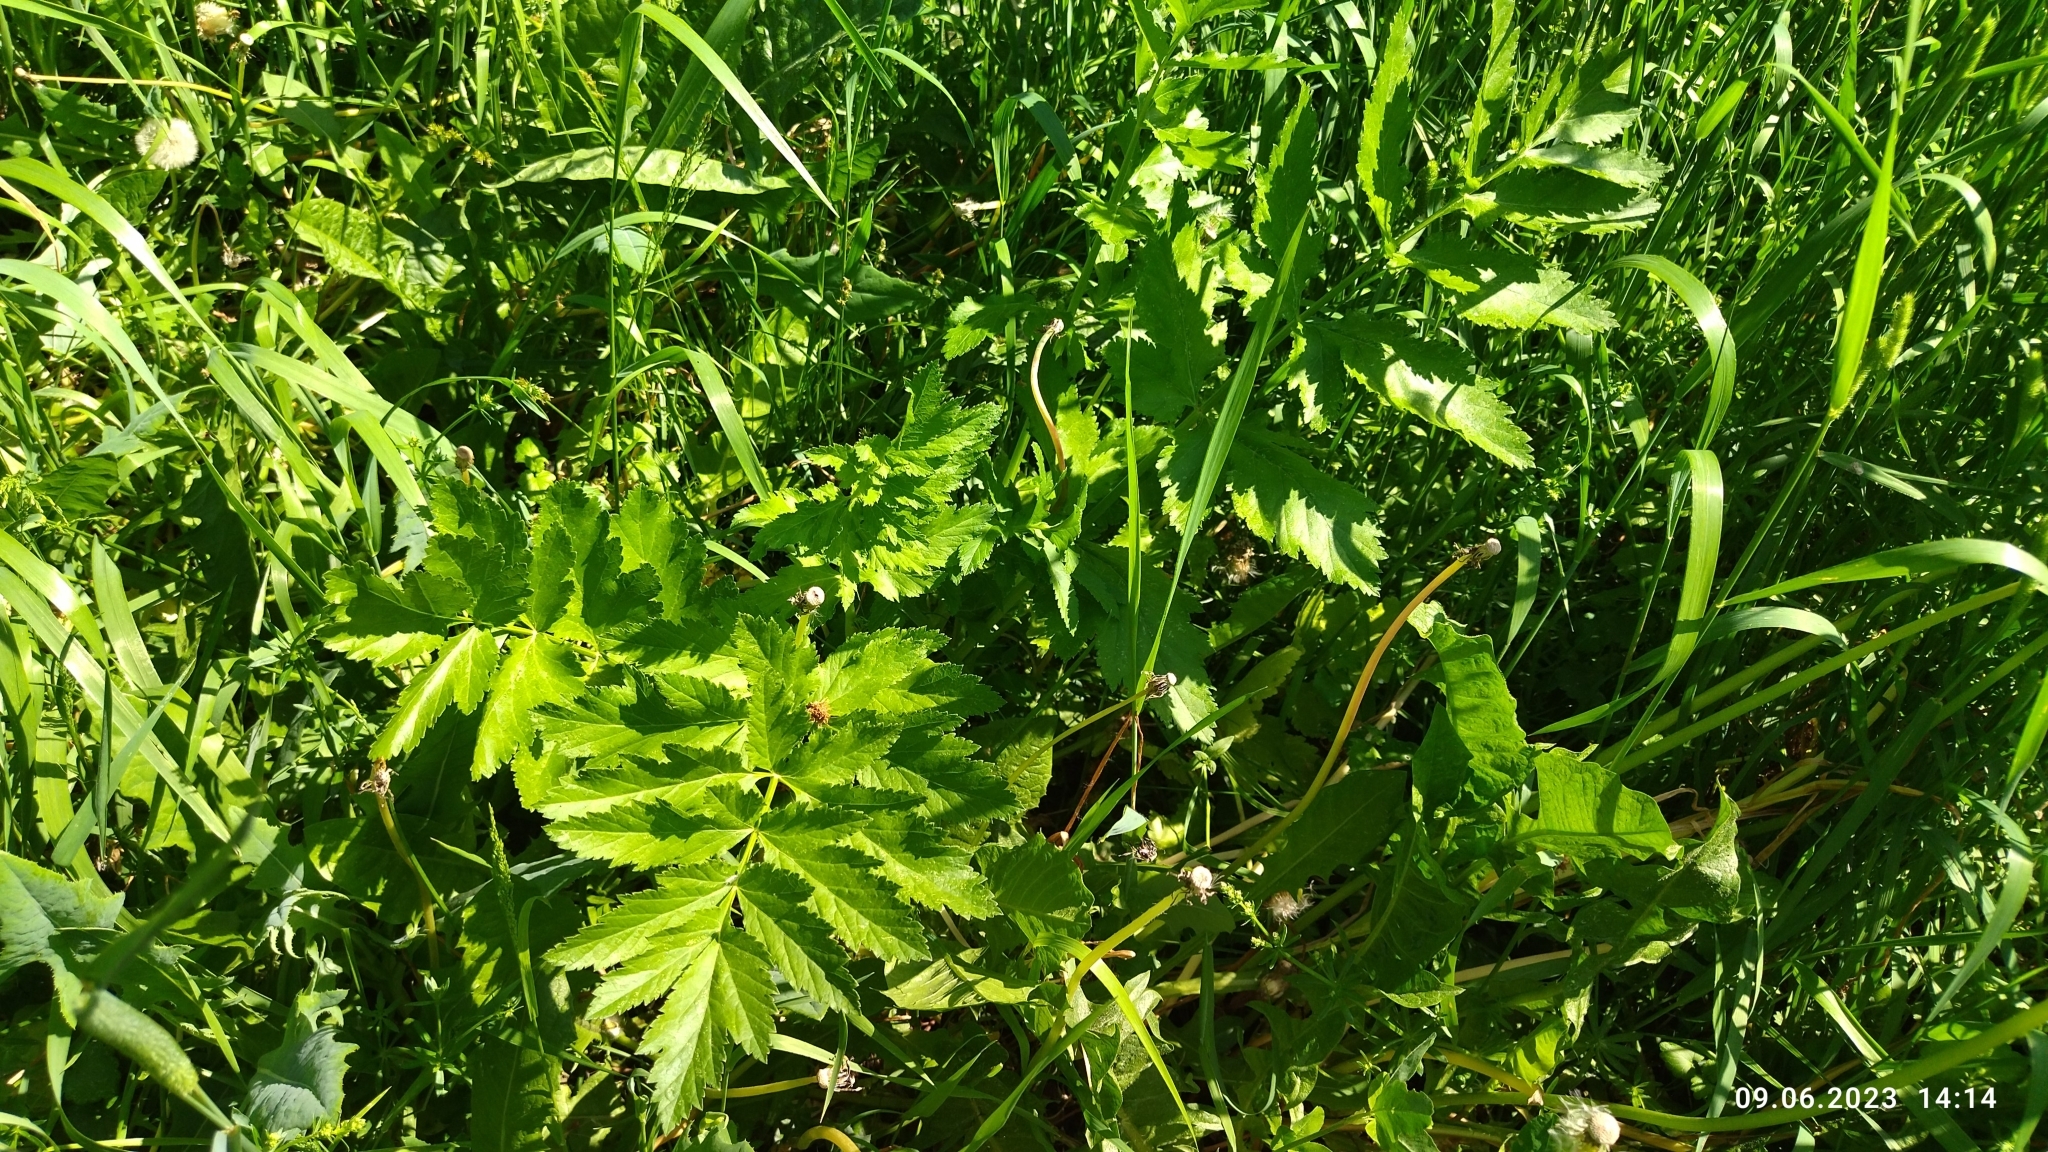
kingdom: Plantae
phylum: Tracheophyta
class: Magnoliopsida
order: Apiales
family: Apiaceae
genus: Pastinaca
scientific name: Pastinaca sativa
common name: Wild parsnip
